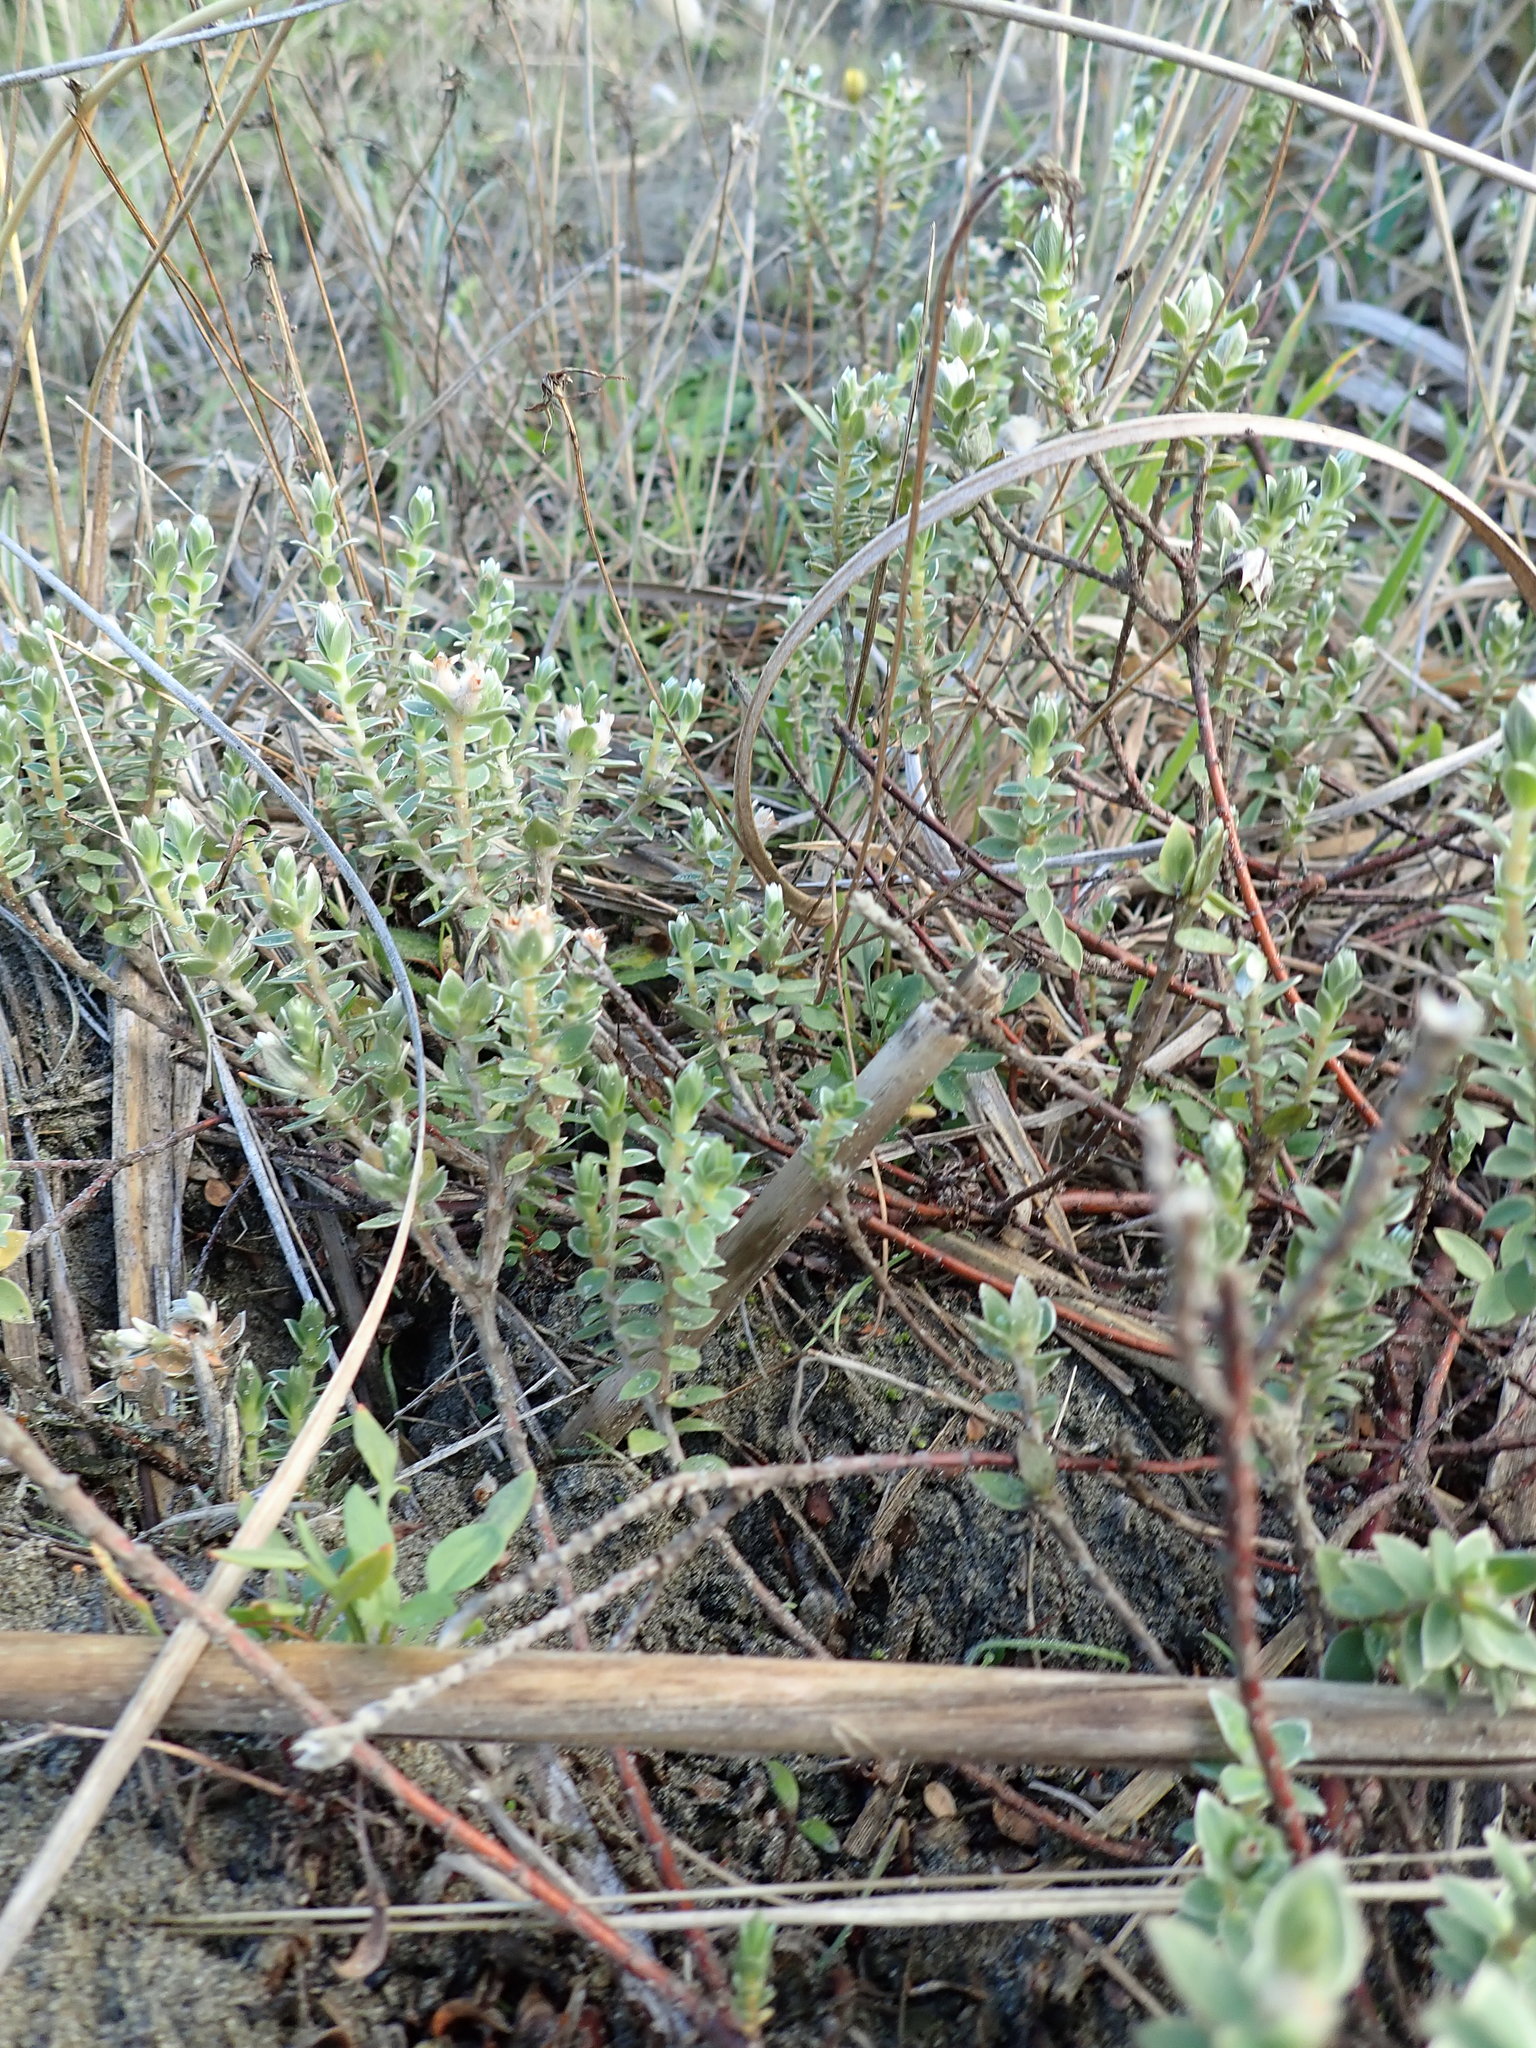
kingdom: Plantae
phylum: Tracheophyta
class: Magnoliopsida
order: Malvales
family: Thymelaeaceae
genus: Pimelea
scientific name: Pimelea villosa
